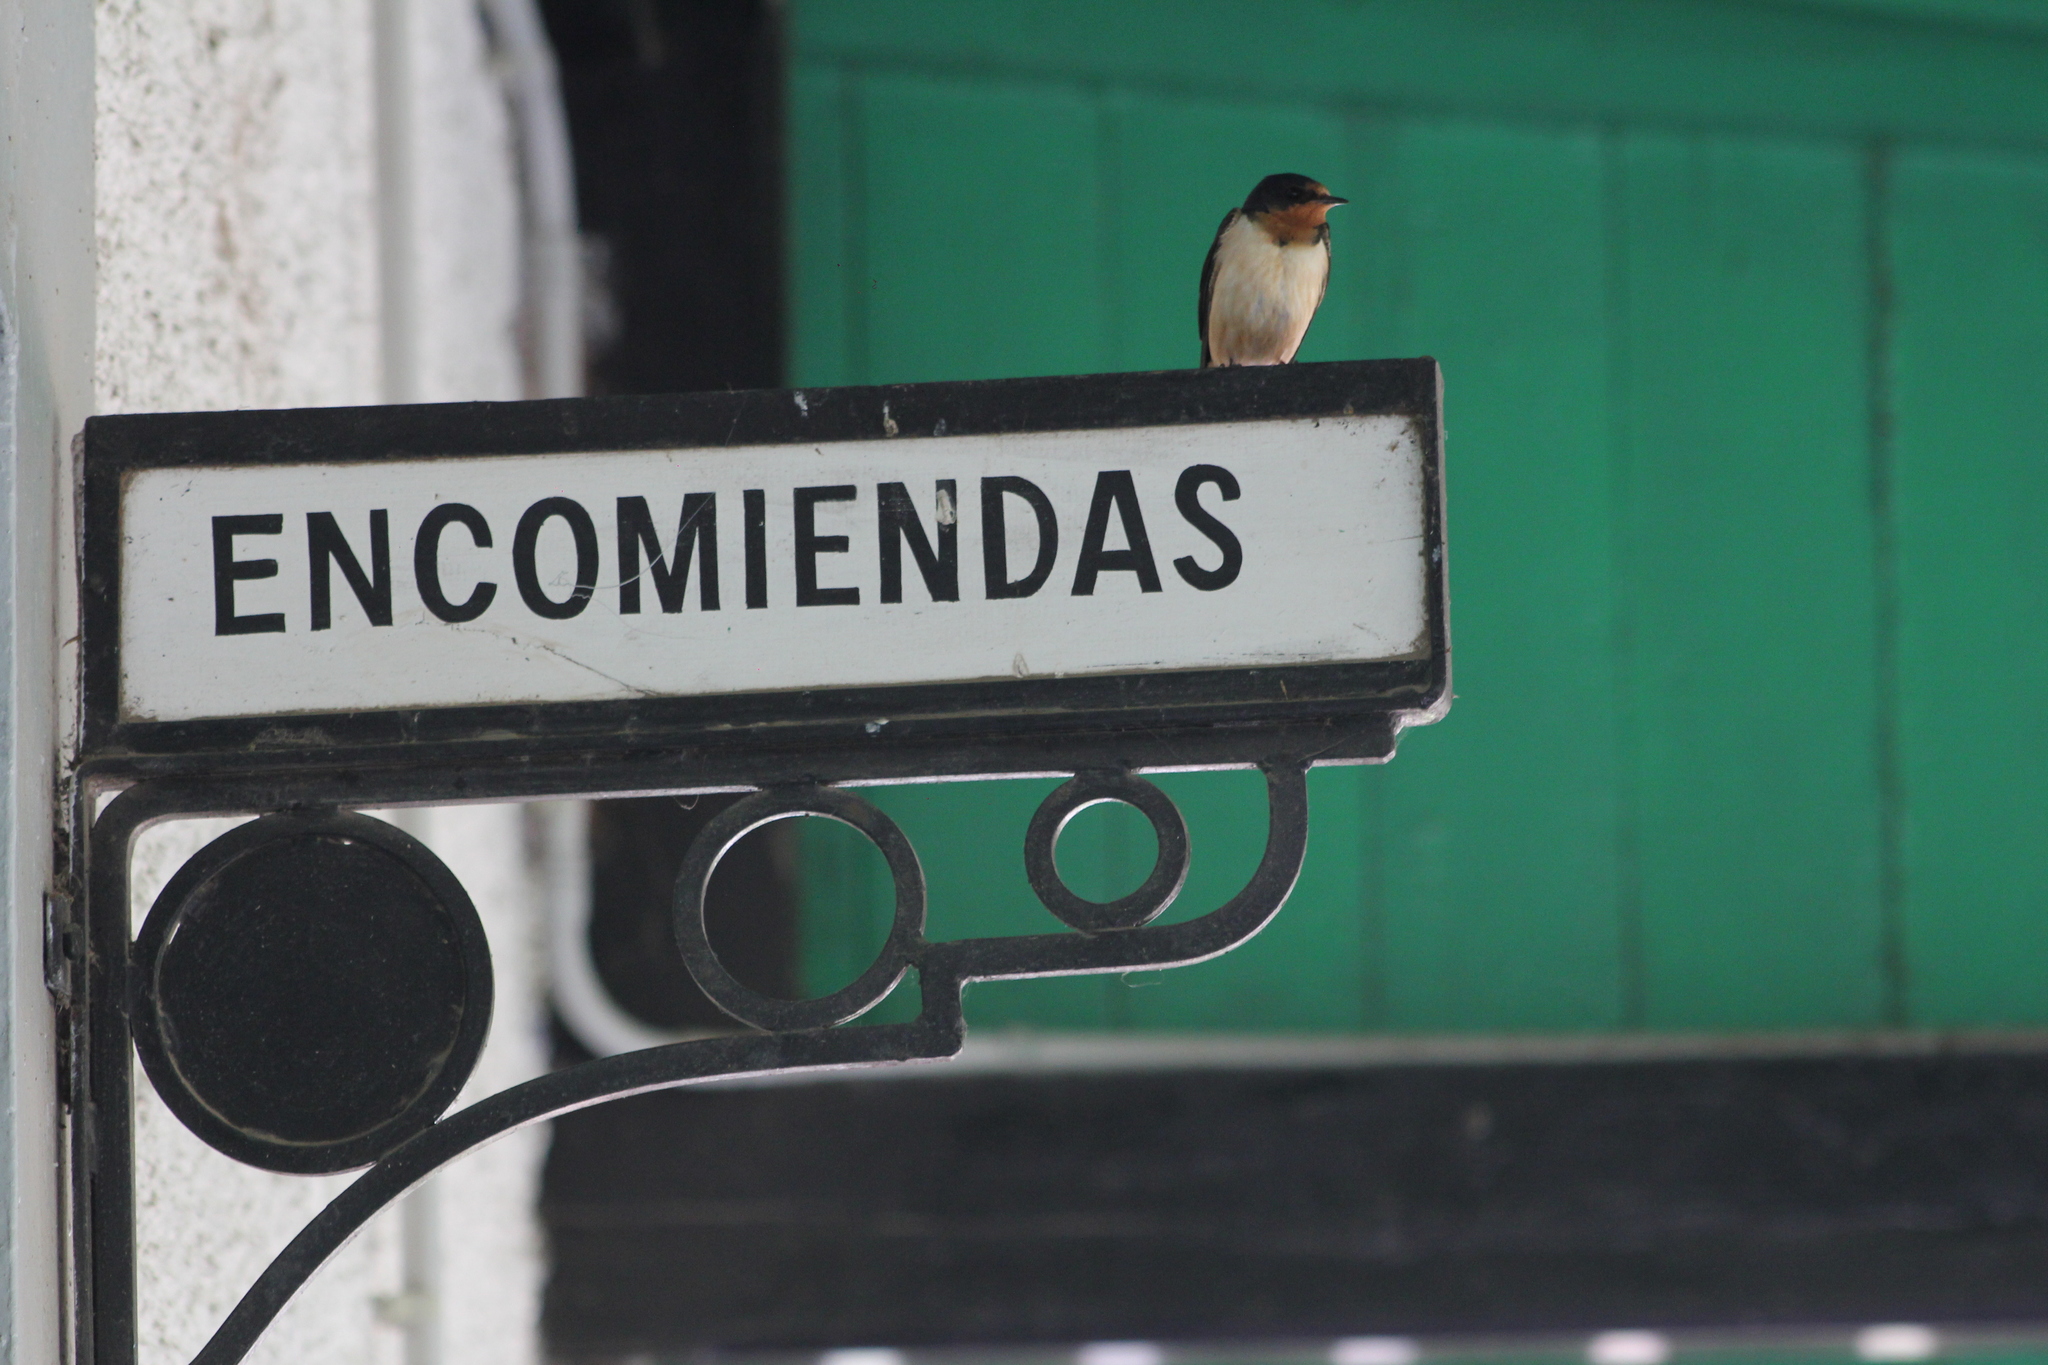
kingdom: Animalia
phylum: Chordata
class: Aves
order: Passeriformes
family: Hirundinidae
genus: Hirundo
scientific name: Hirundo rustica
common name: Barn swallow
